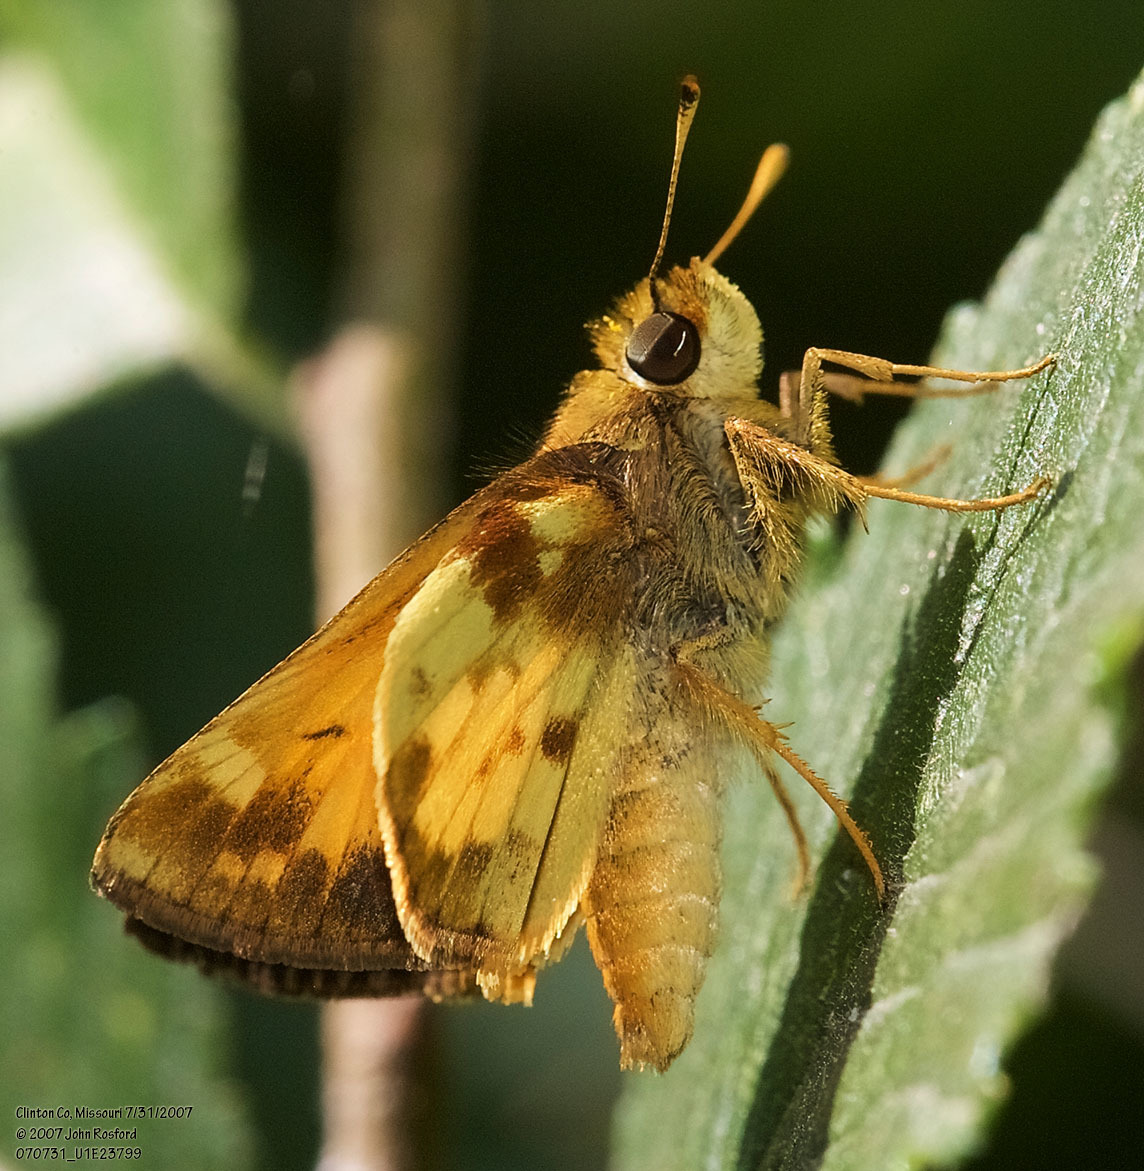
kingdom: Animalia
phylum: Arthropoda
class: Insecta
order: Lepidoptera
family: Hesperiidae
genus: Lon
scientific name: Lon zabulon
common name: Zabulon skipper
